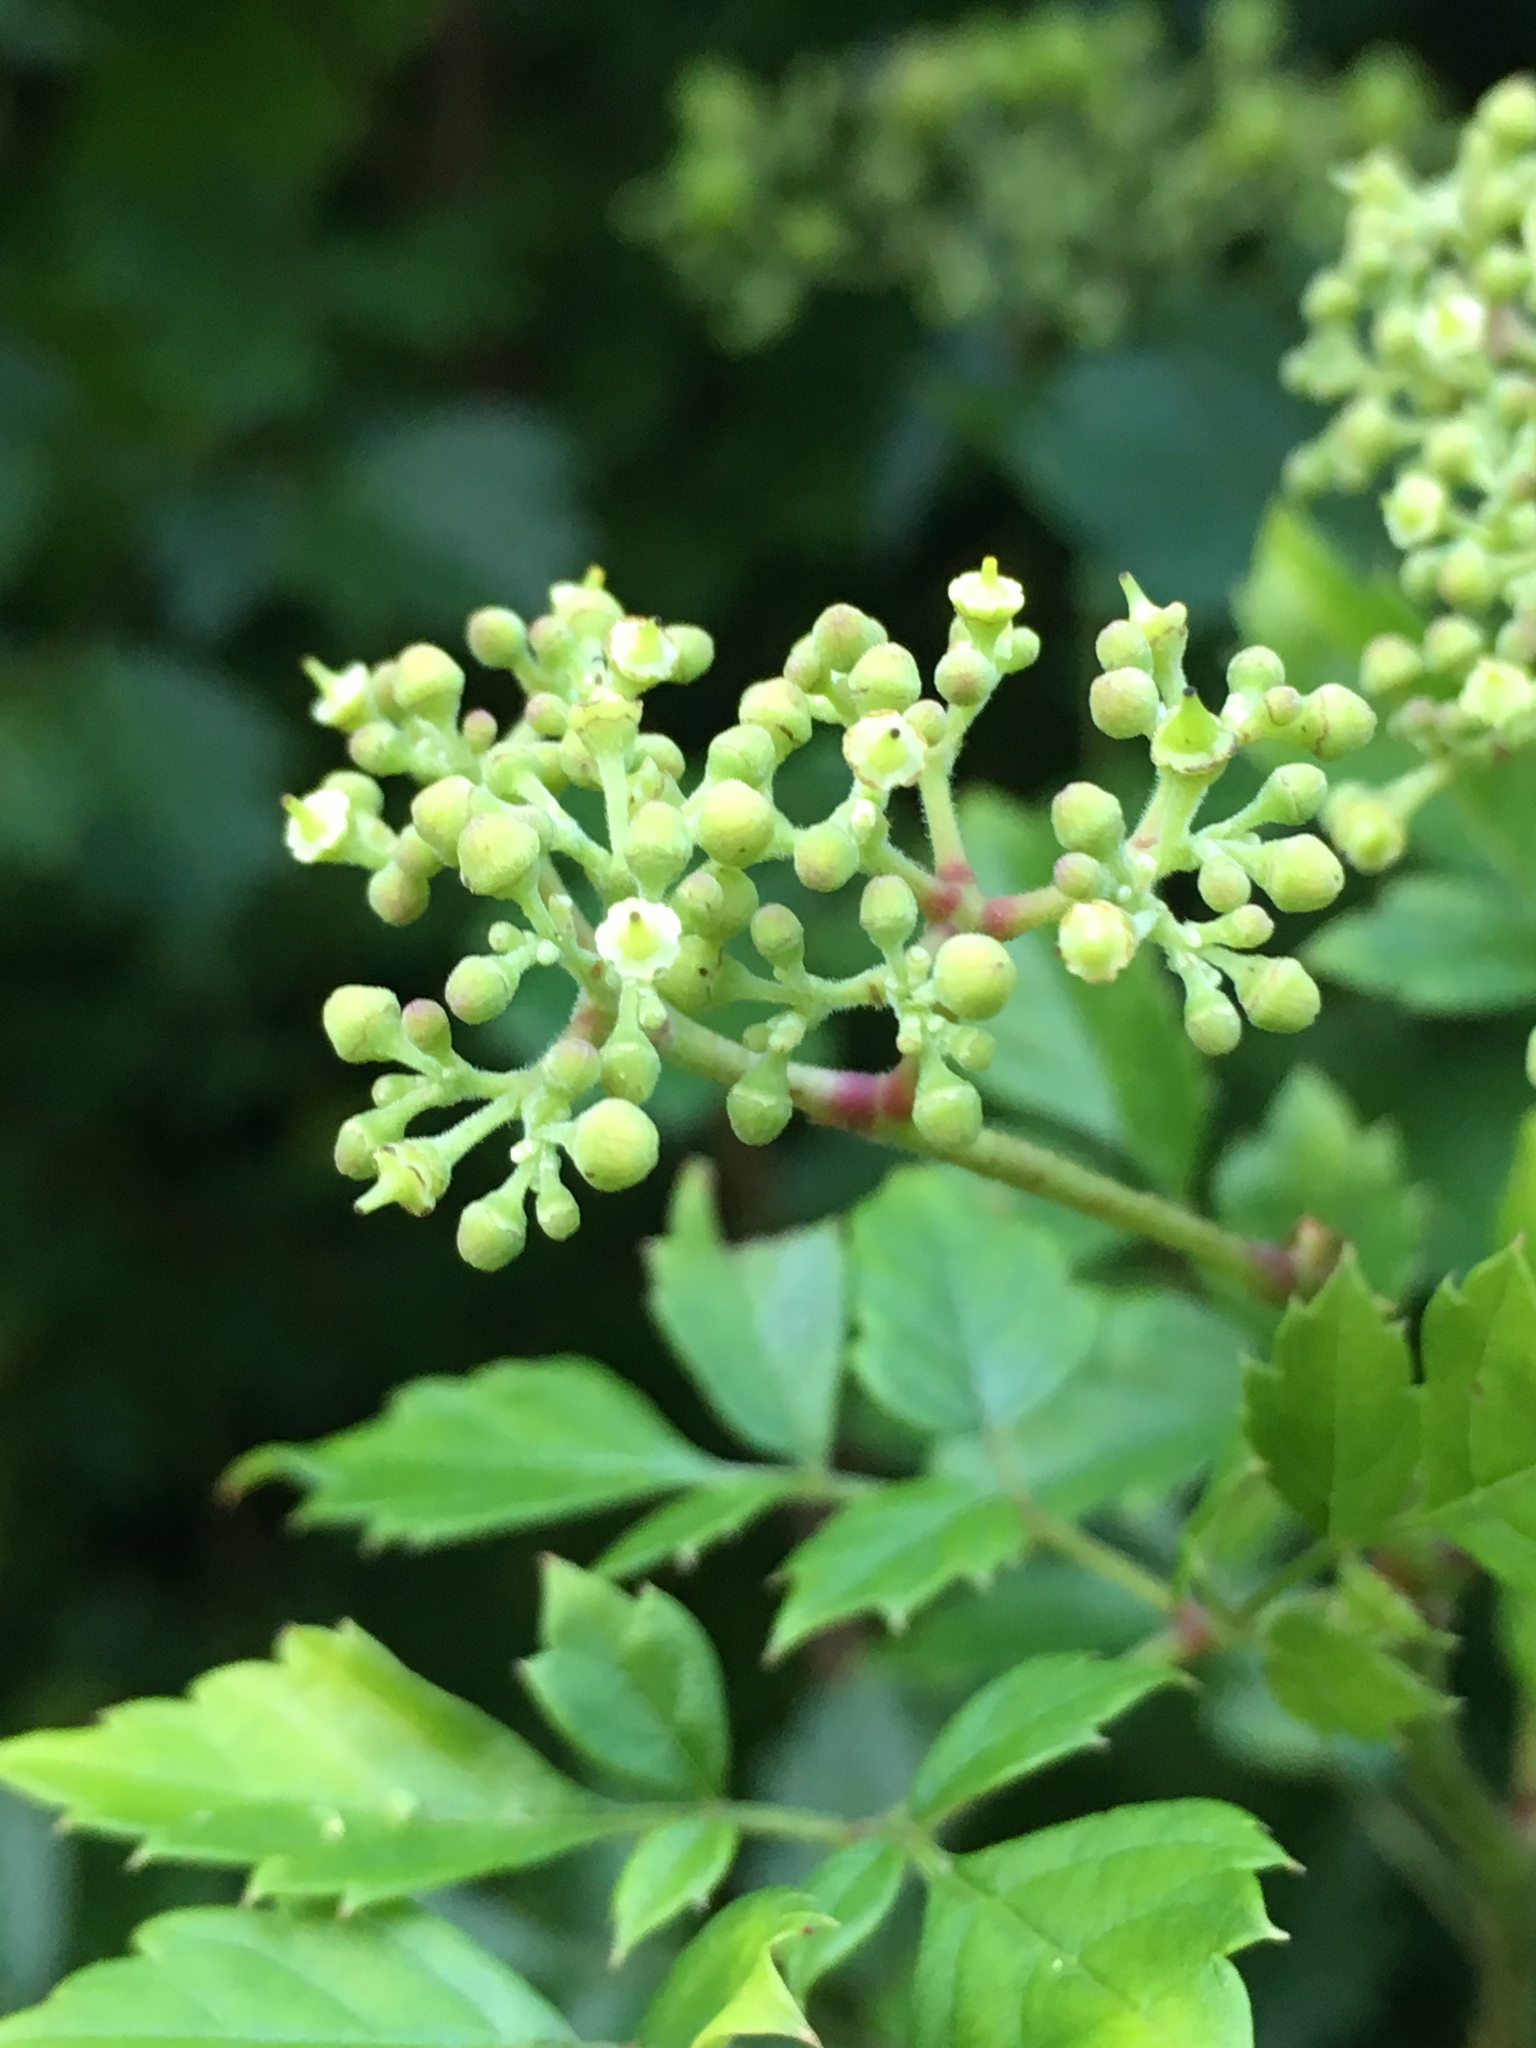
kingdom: Plantae
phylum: Tracheophyta
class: Magnoliopsida
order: Vitales
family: Vitaceae
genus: Nekemias
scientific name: Nekemias arborea
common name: Peppervine
